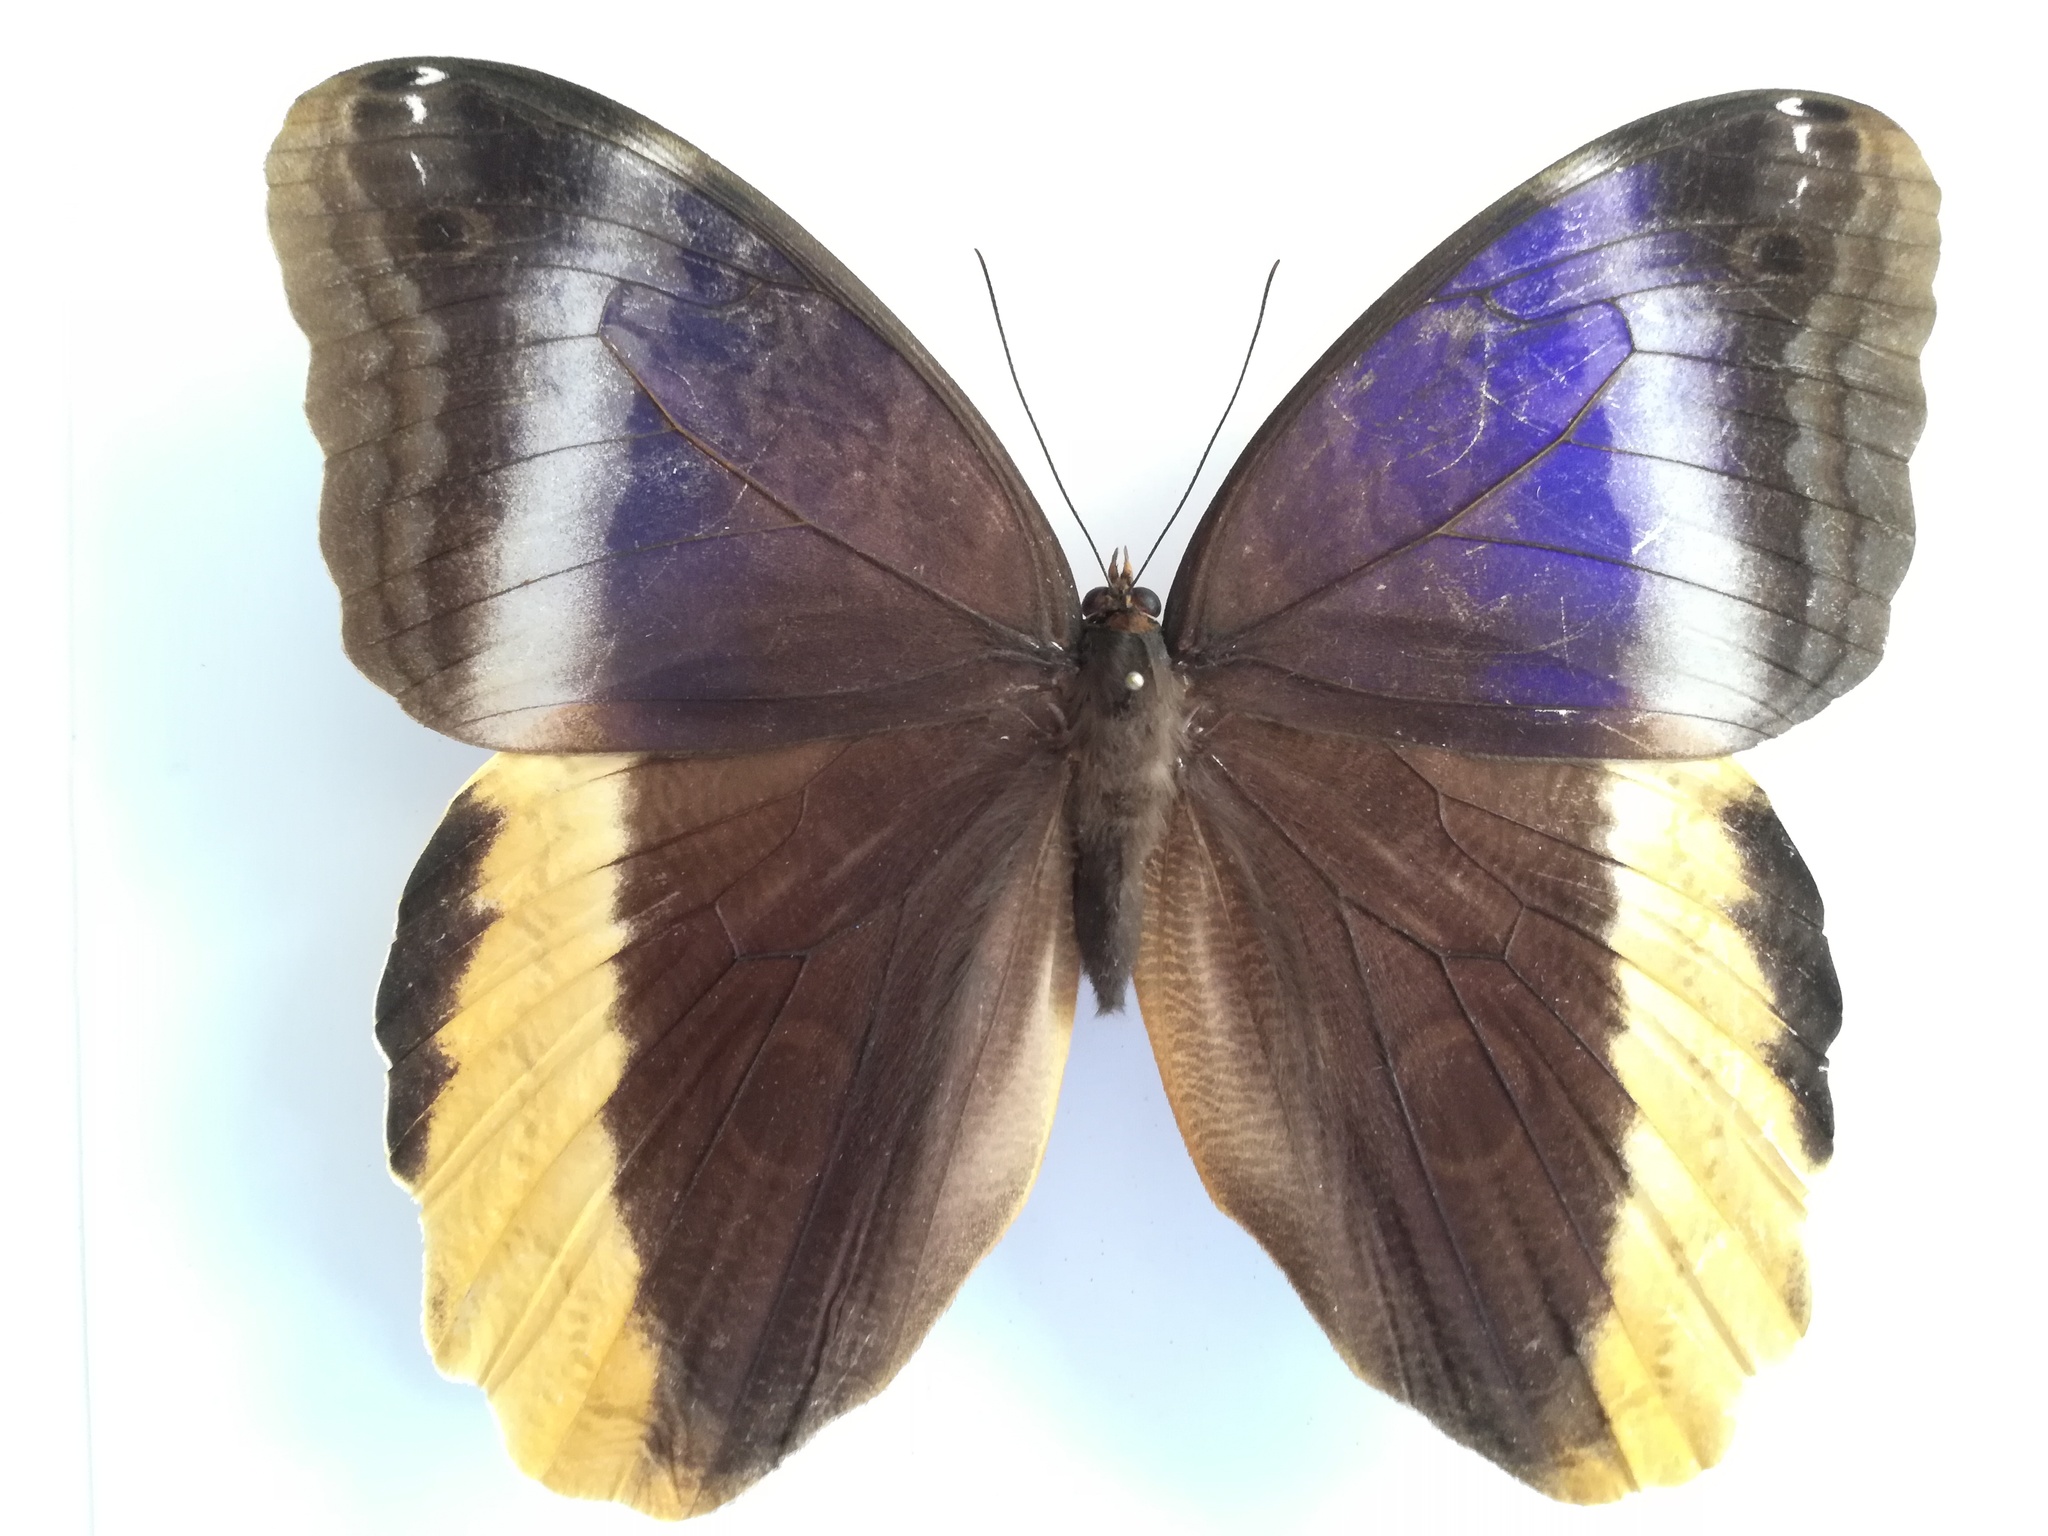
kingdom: Animalia
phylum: Arthropoda
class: Insecta
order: Lepidoptera
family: Nymphalidae
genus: Caligo
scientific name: Caligo atreus
